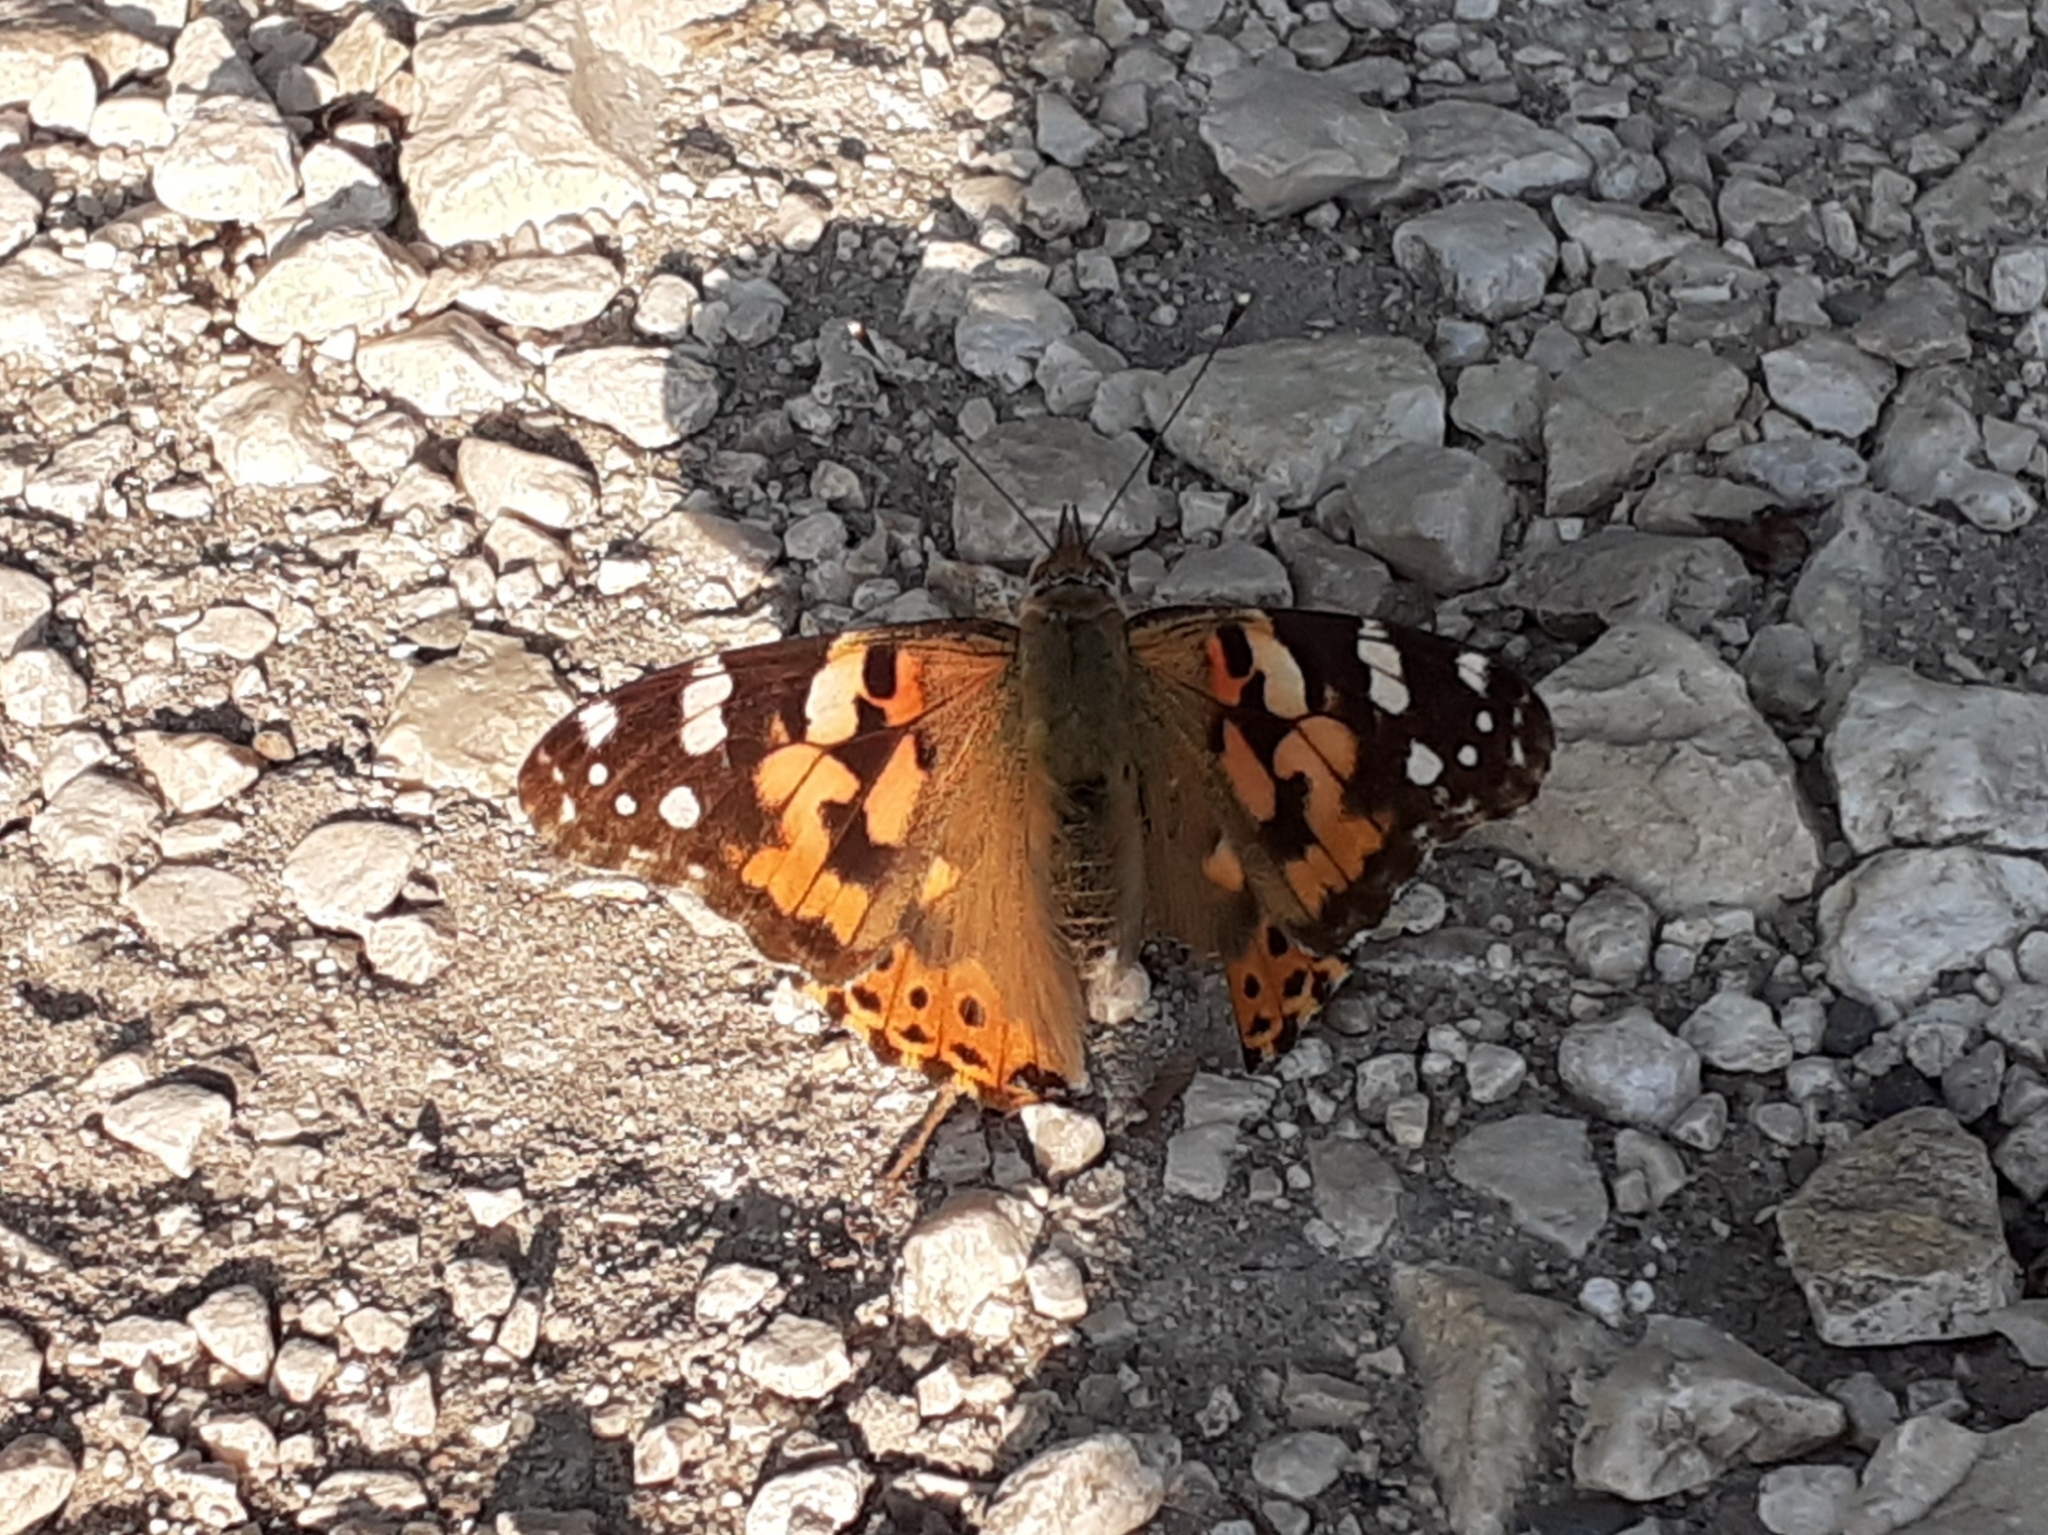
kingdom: Animalia
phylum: Arthropoda
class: Insecta
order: Lepidoptera
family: Nymphalidae
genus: Vanessa
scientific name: Vanessa cardui
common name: Painted lady
